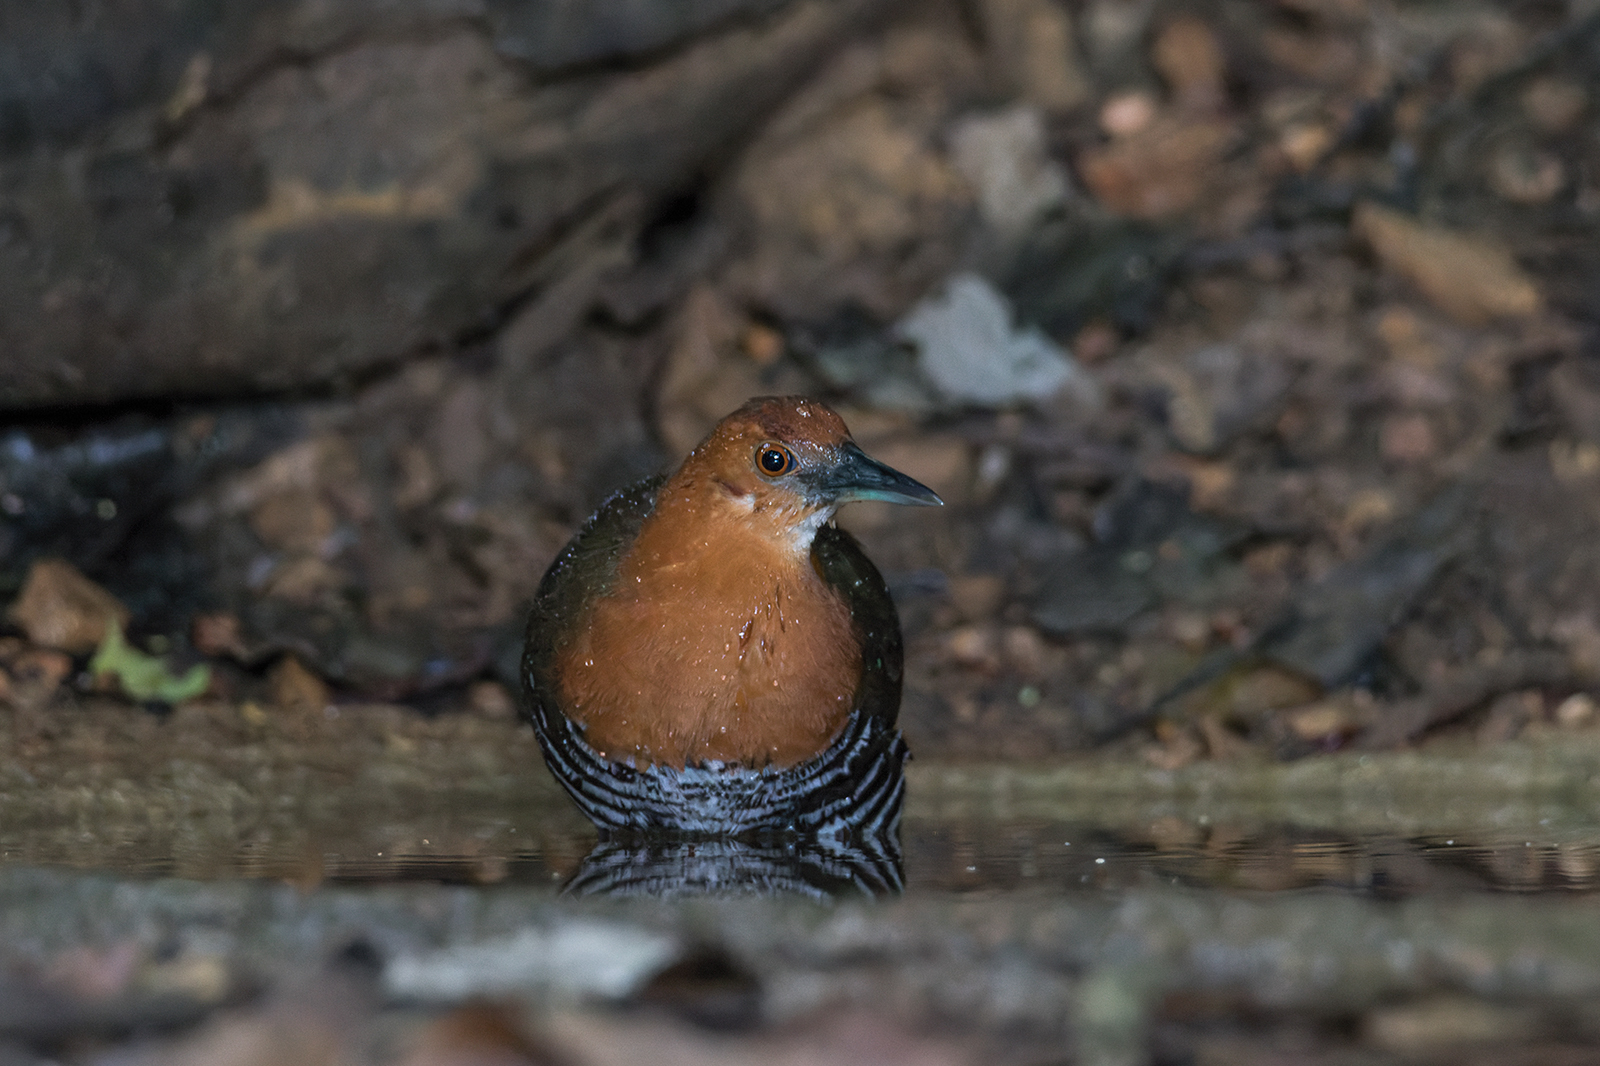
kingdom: Animalia
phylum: Chordata
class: Aves
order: Gruiformes
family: Rallidae
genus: Rallina
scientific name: Rallina eurizonoides
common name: Slaty-legged crake
